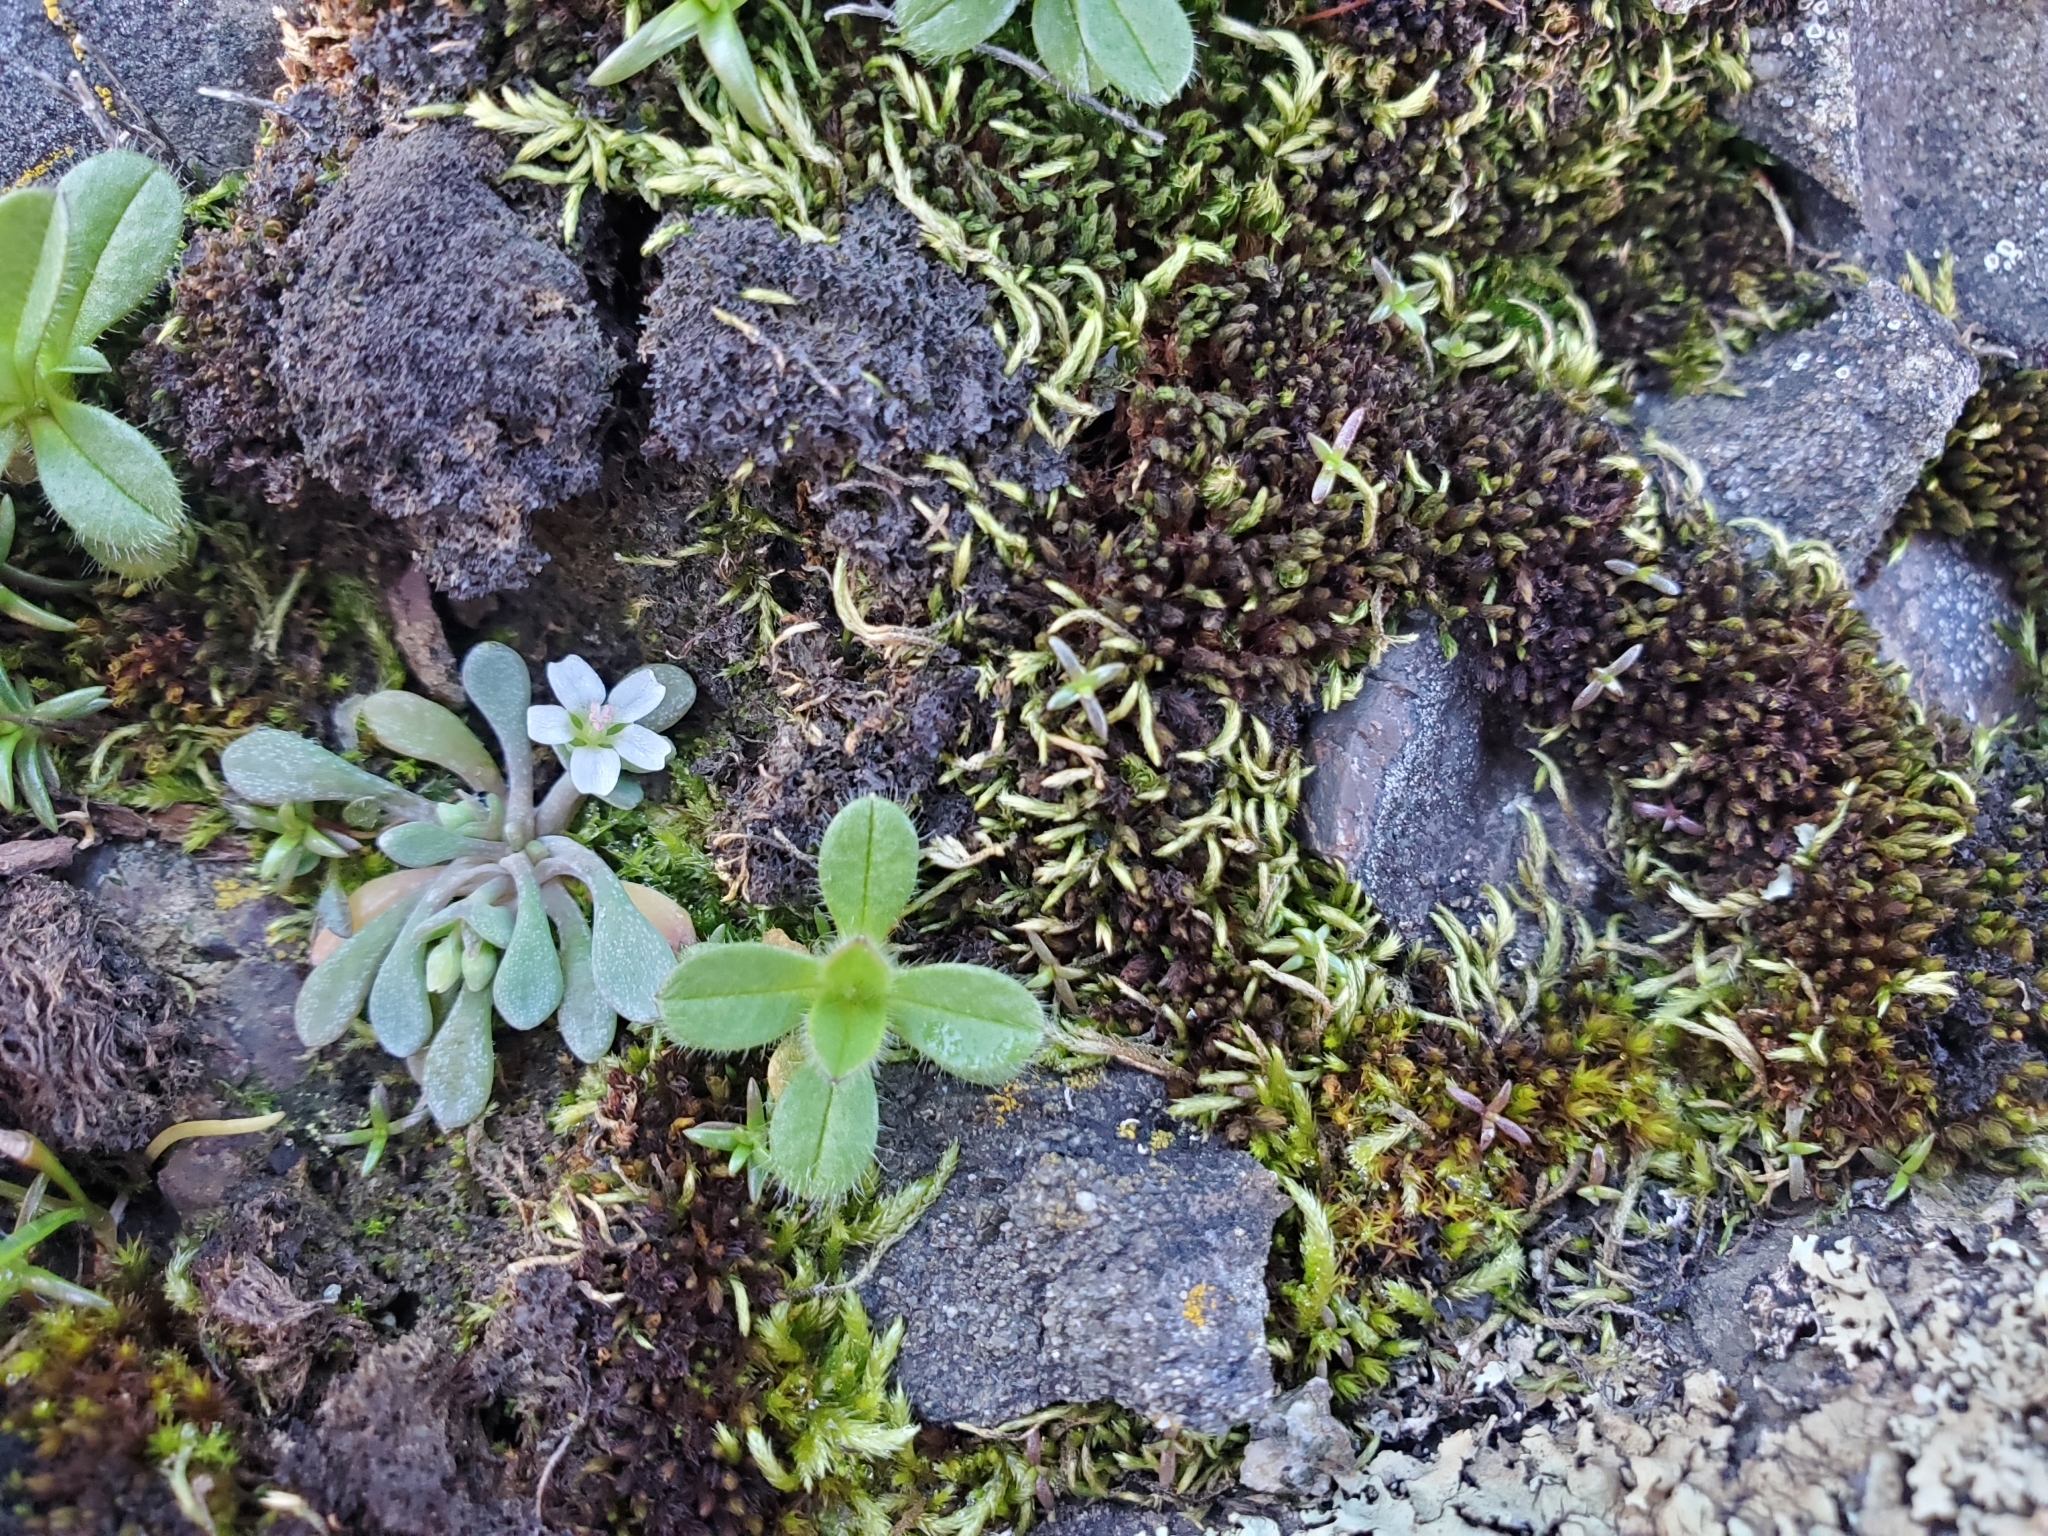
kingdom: Plantae
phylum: Tracheophyta
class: Magnoliopsida
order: Caryophyllales
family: Montiaceae
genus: Claytonia
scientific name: Claytonia exigua
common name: Pale spring beauty
